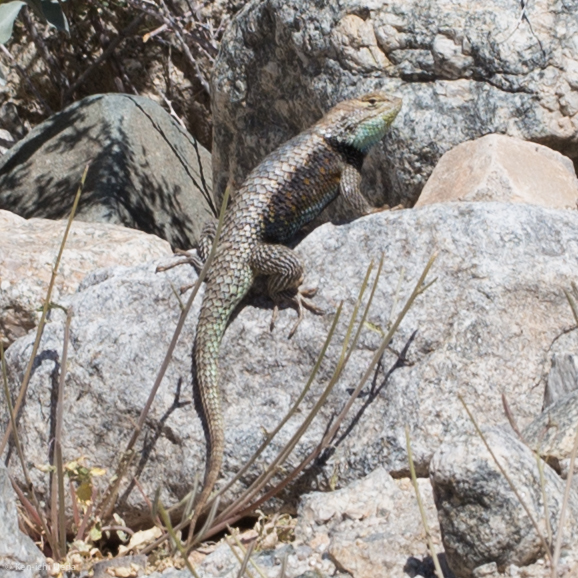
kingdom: Animalia
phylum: Chordata
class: Squamata
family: Phrynosomatidae
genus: Sceloporus
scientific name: Sceloporus magister
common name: Desert spiny lizard
